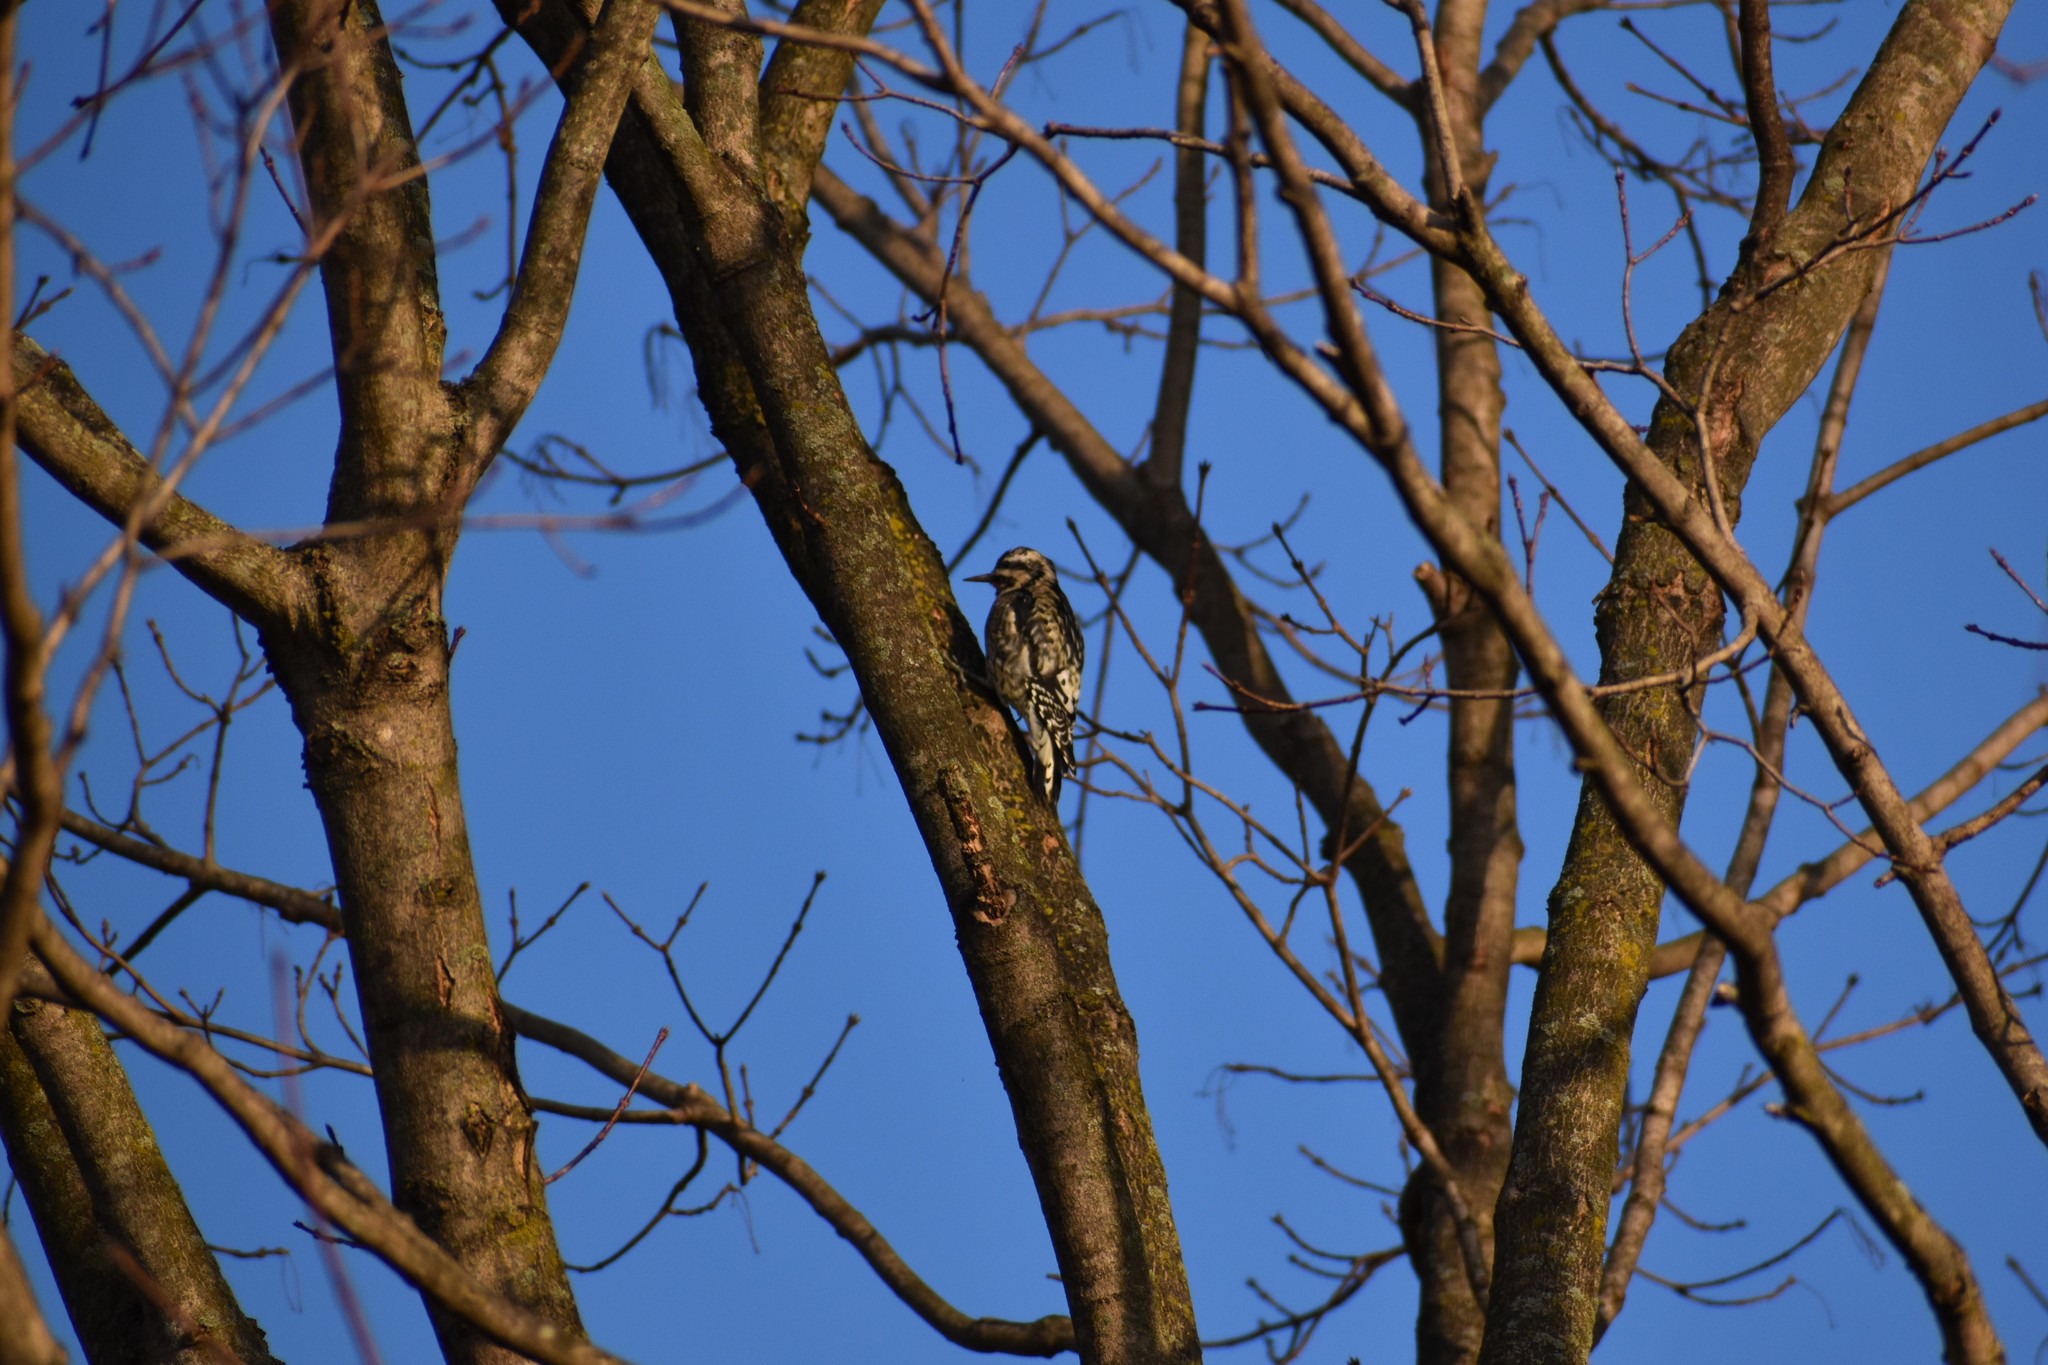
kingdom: Animalia
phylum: Chordata
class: Aves
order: Piciformes
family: Picidae
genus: Sphyrapicus
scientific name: Sphyrapicus varius
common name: Yellow-bellied sapsucker
